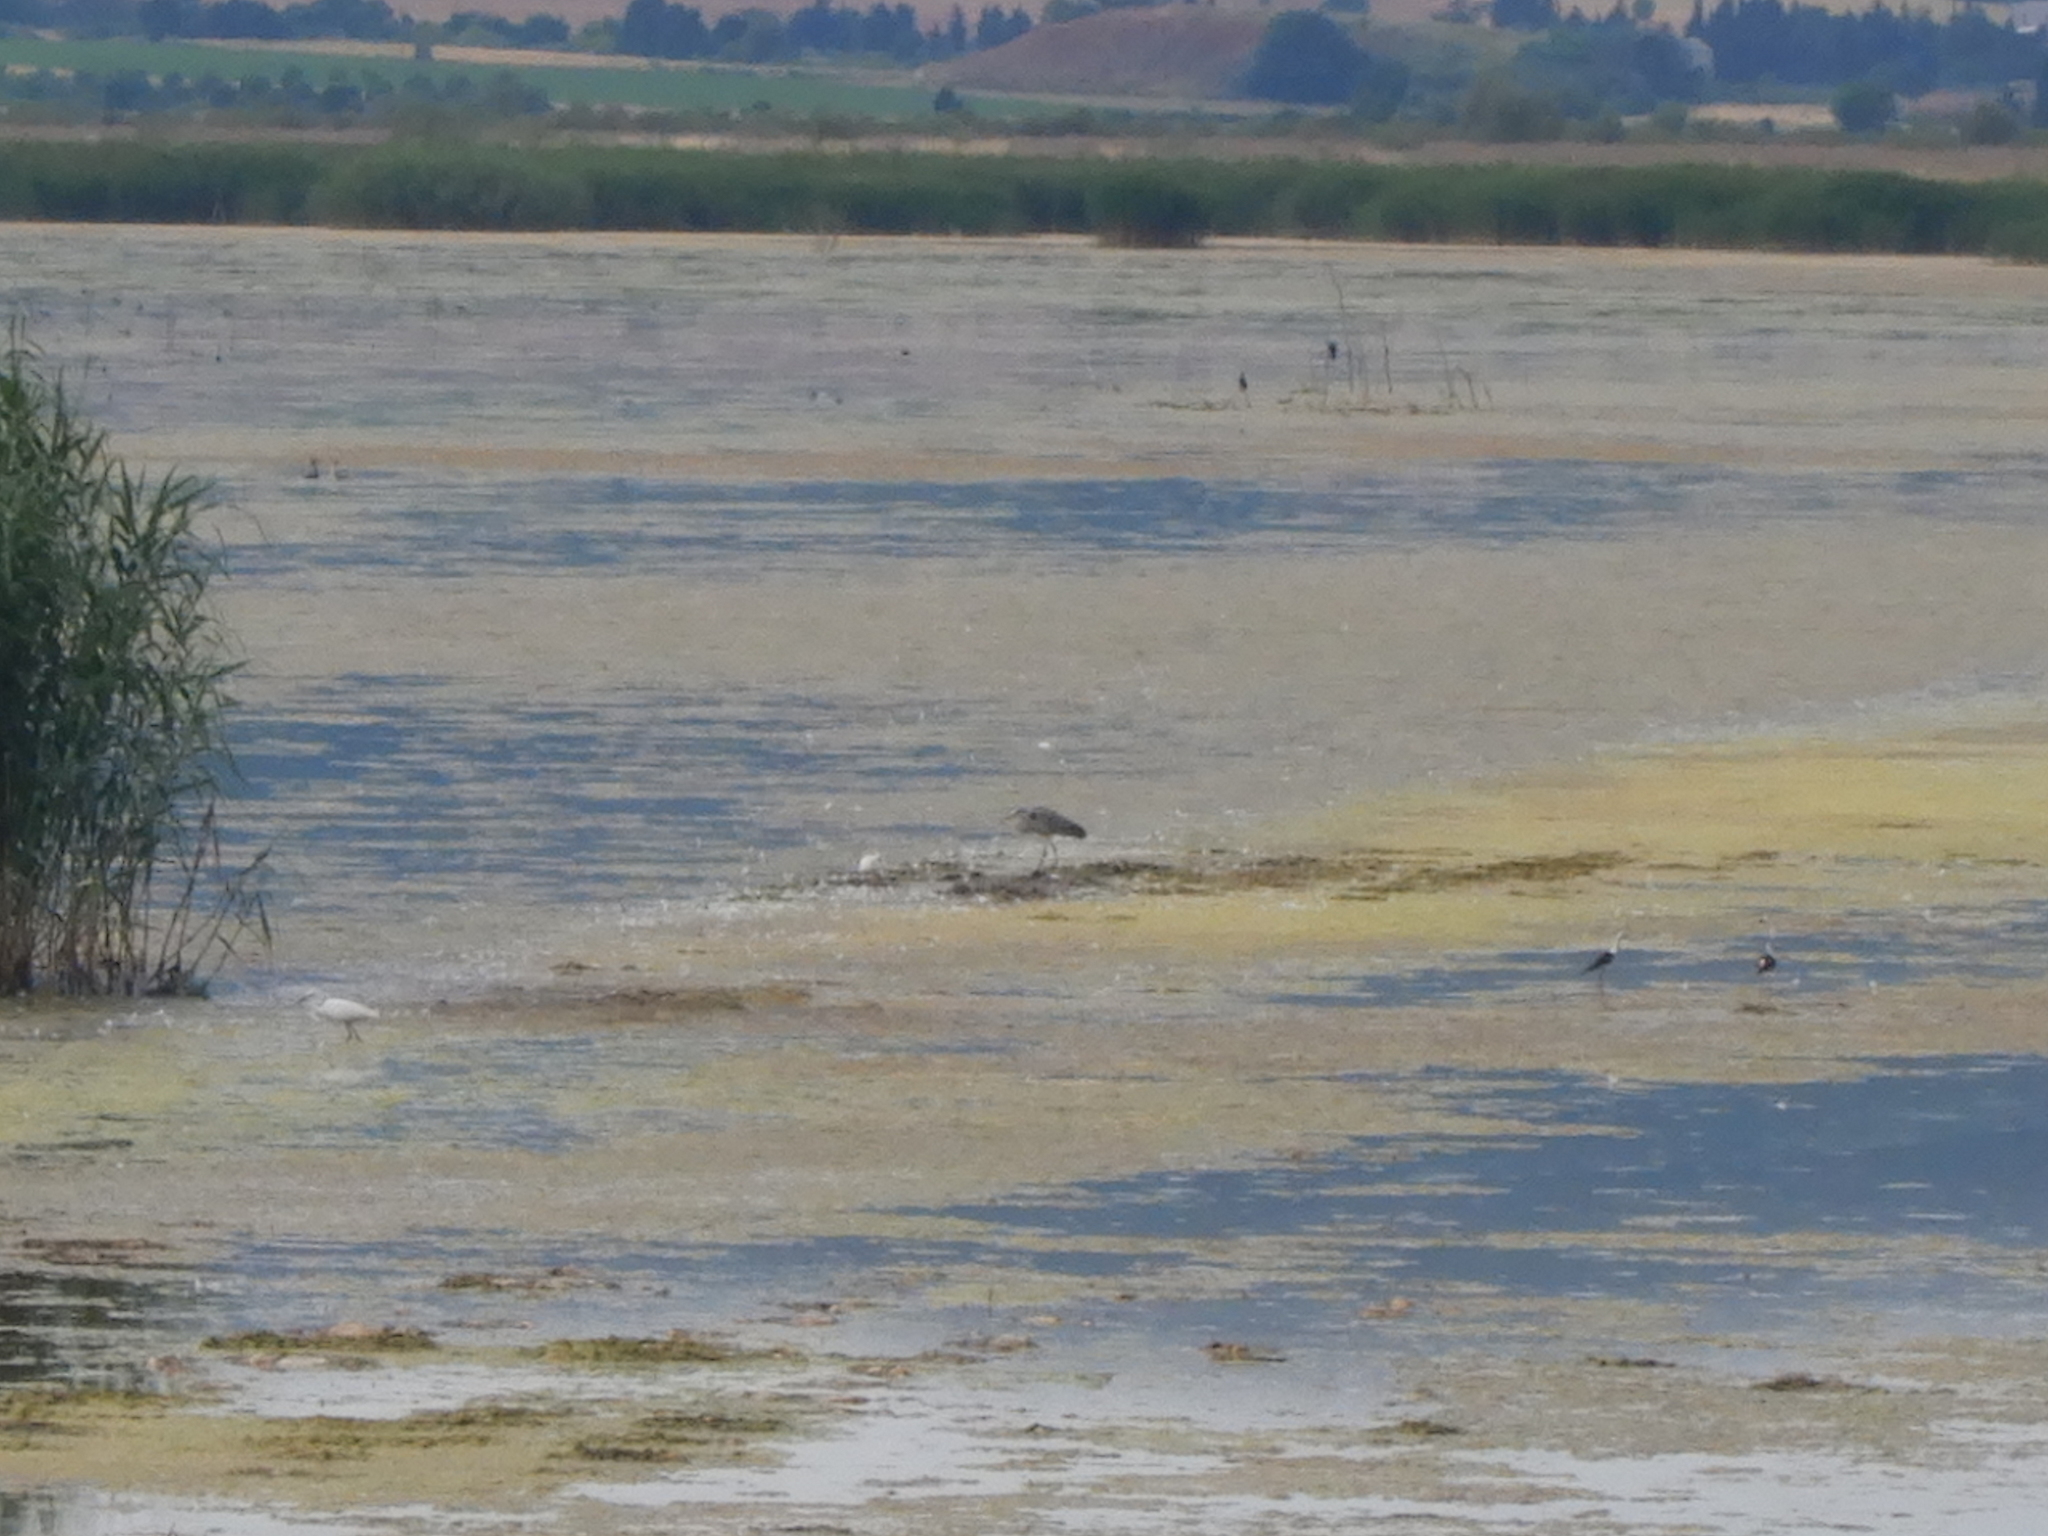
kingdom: Animalia
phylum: Chordata
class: Aves
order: Pelecaniformes
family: Ardeidae
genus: Ardea
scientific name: Ardea cinerea
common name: Grey heron
